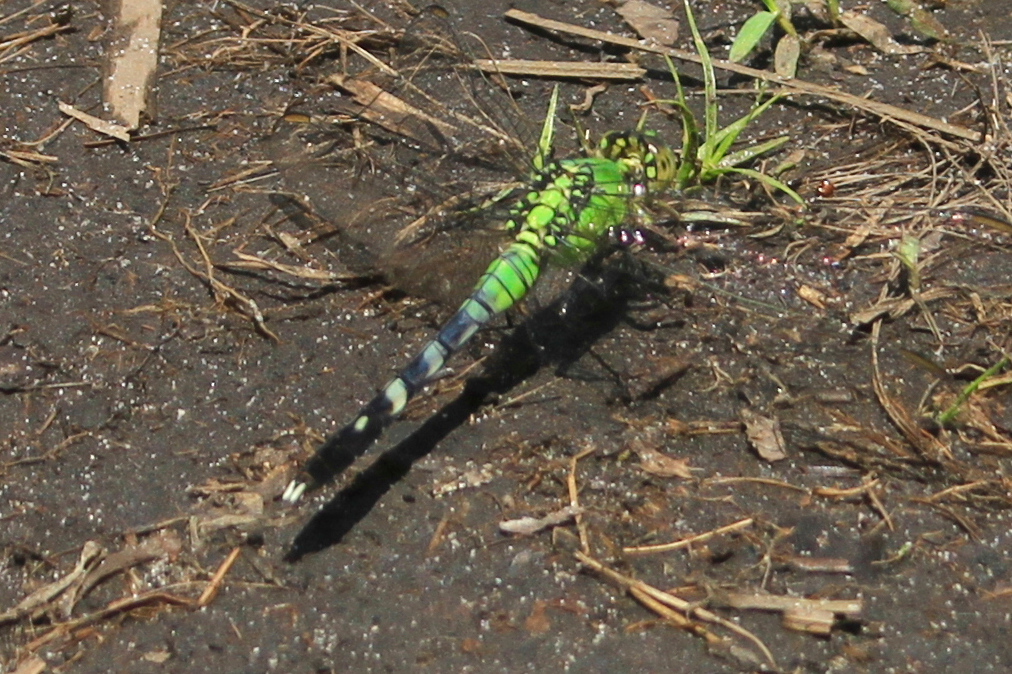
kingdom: Animalia
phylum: Arthropoda
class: Insecta
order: Odonata
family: Libellulidae
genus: Erythemis
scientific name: Erythemis simplicicollis
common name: Eastern pondhawk
